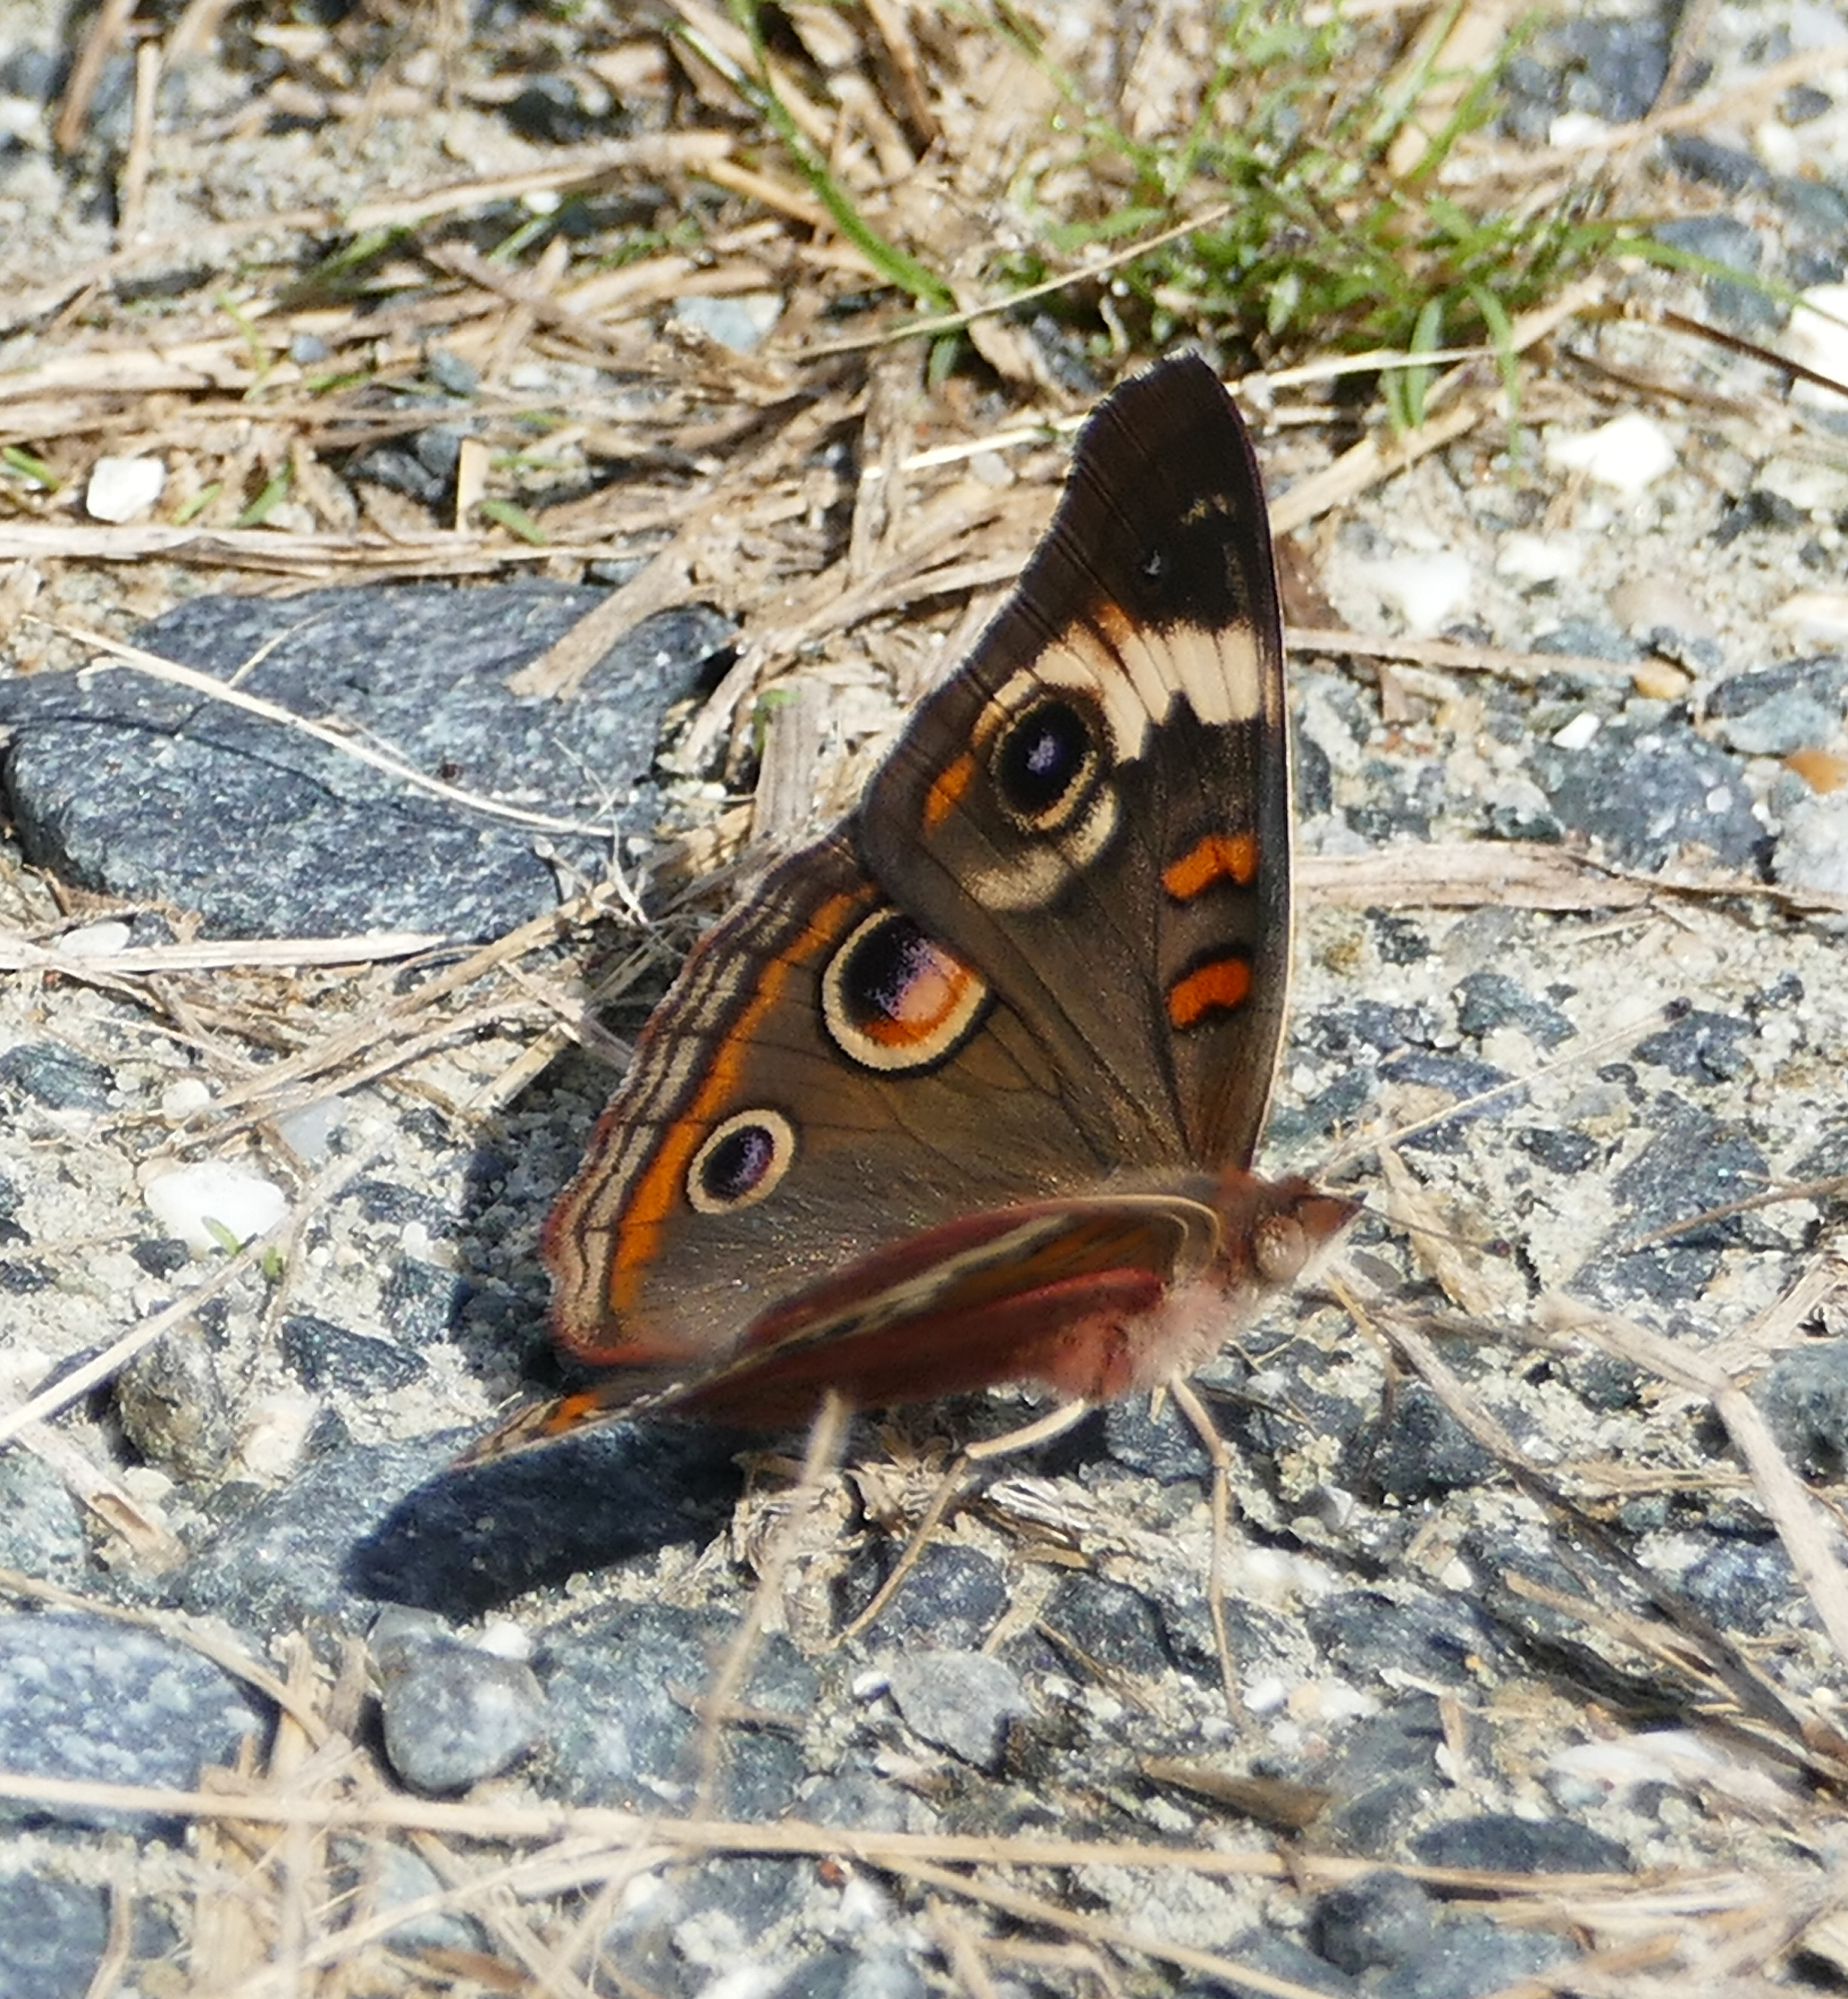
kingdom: Animalia
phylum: Arthropoda
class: Insecta
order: Lepidoptera
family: Nymphalidae
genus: Junonia
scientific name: Junonia coenia
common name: Common buckeye
